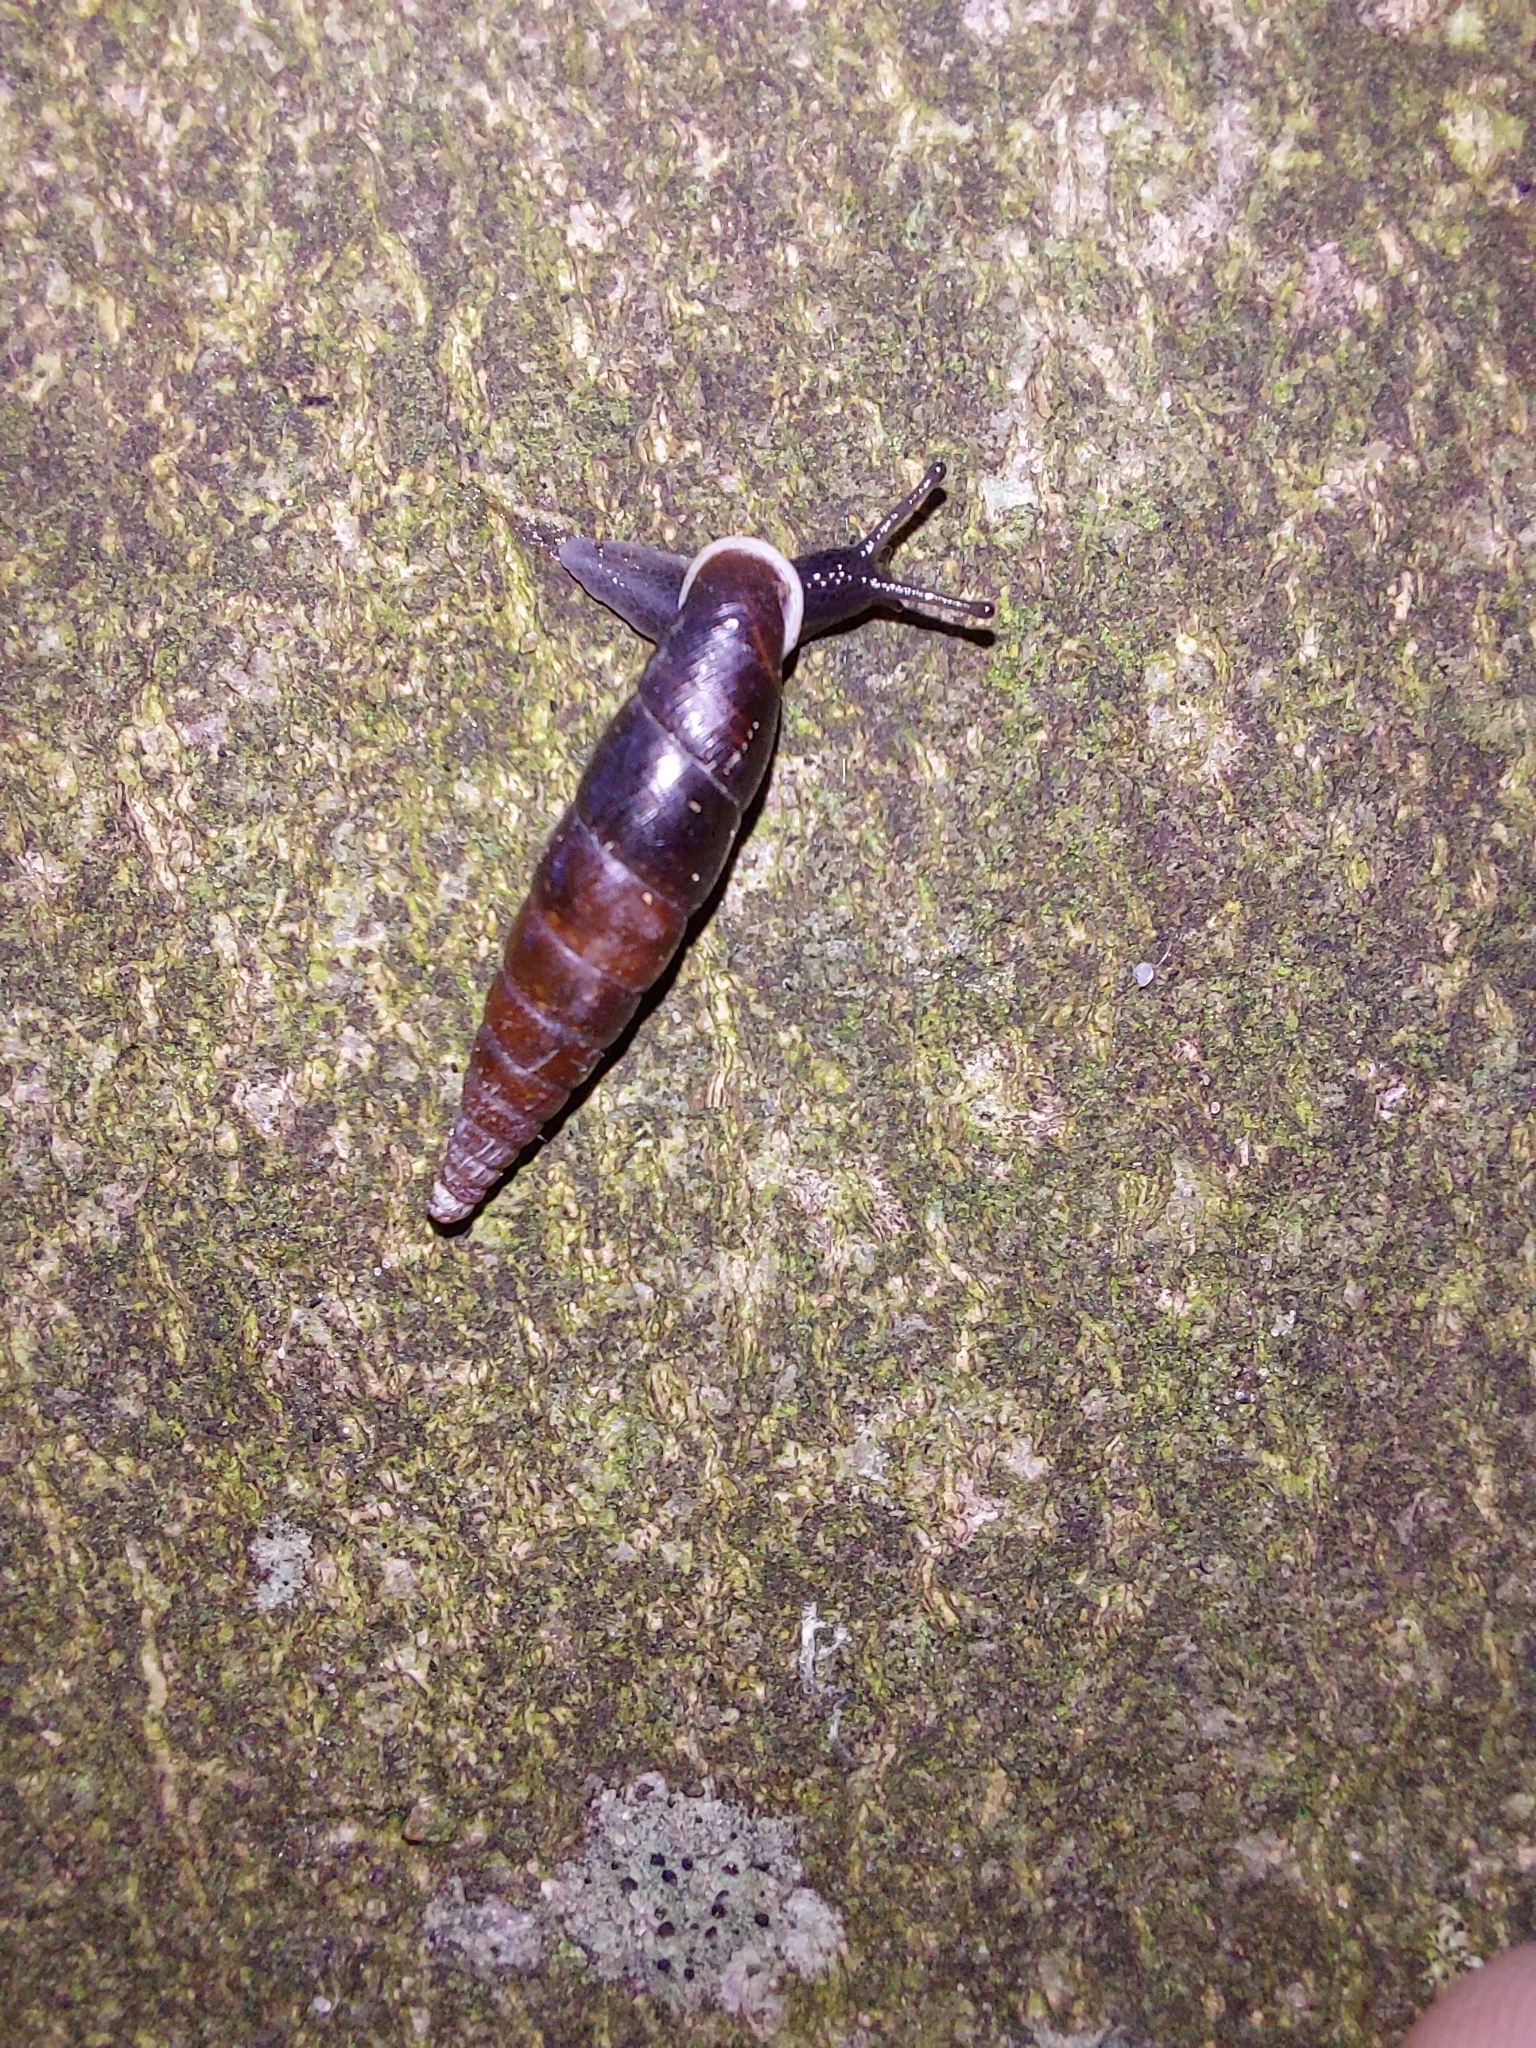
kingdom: Animalia
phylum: Mollusca
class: Gastropoda
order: Stylommatophora
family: Clausiliidae
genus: Cochlodina
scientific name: Cochlodina laminata
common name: Plaited door snail
